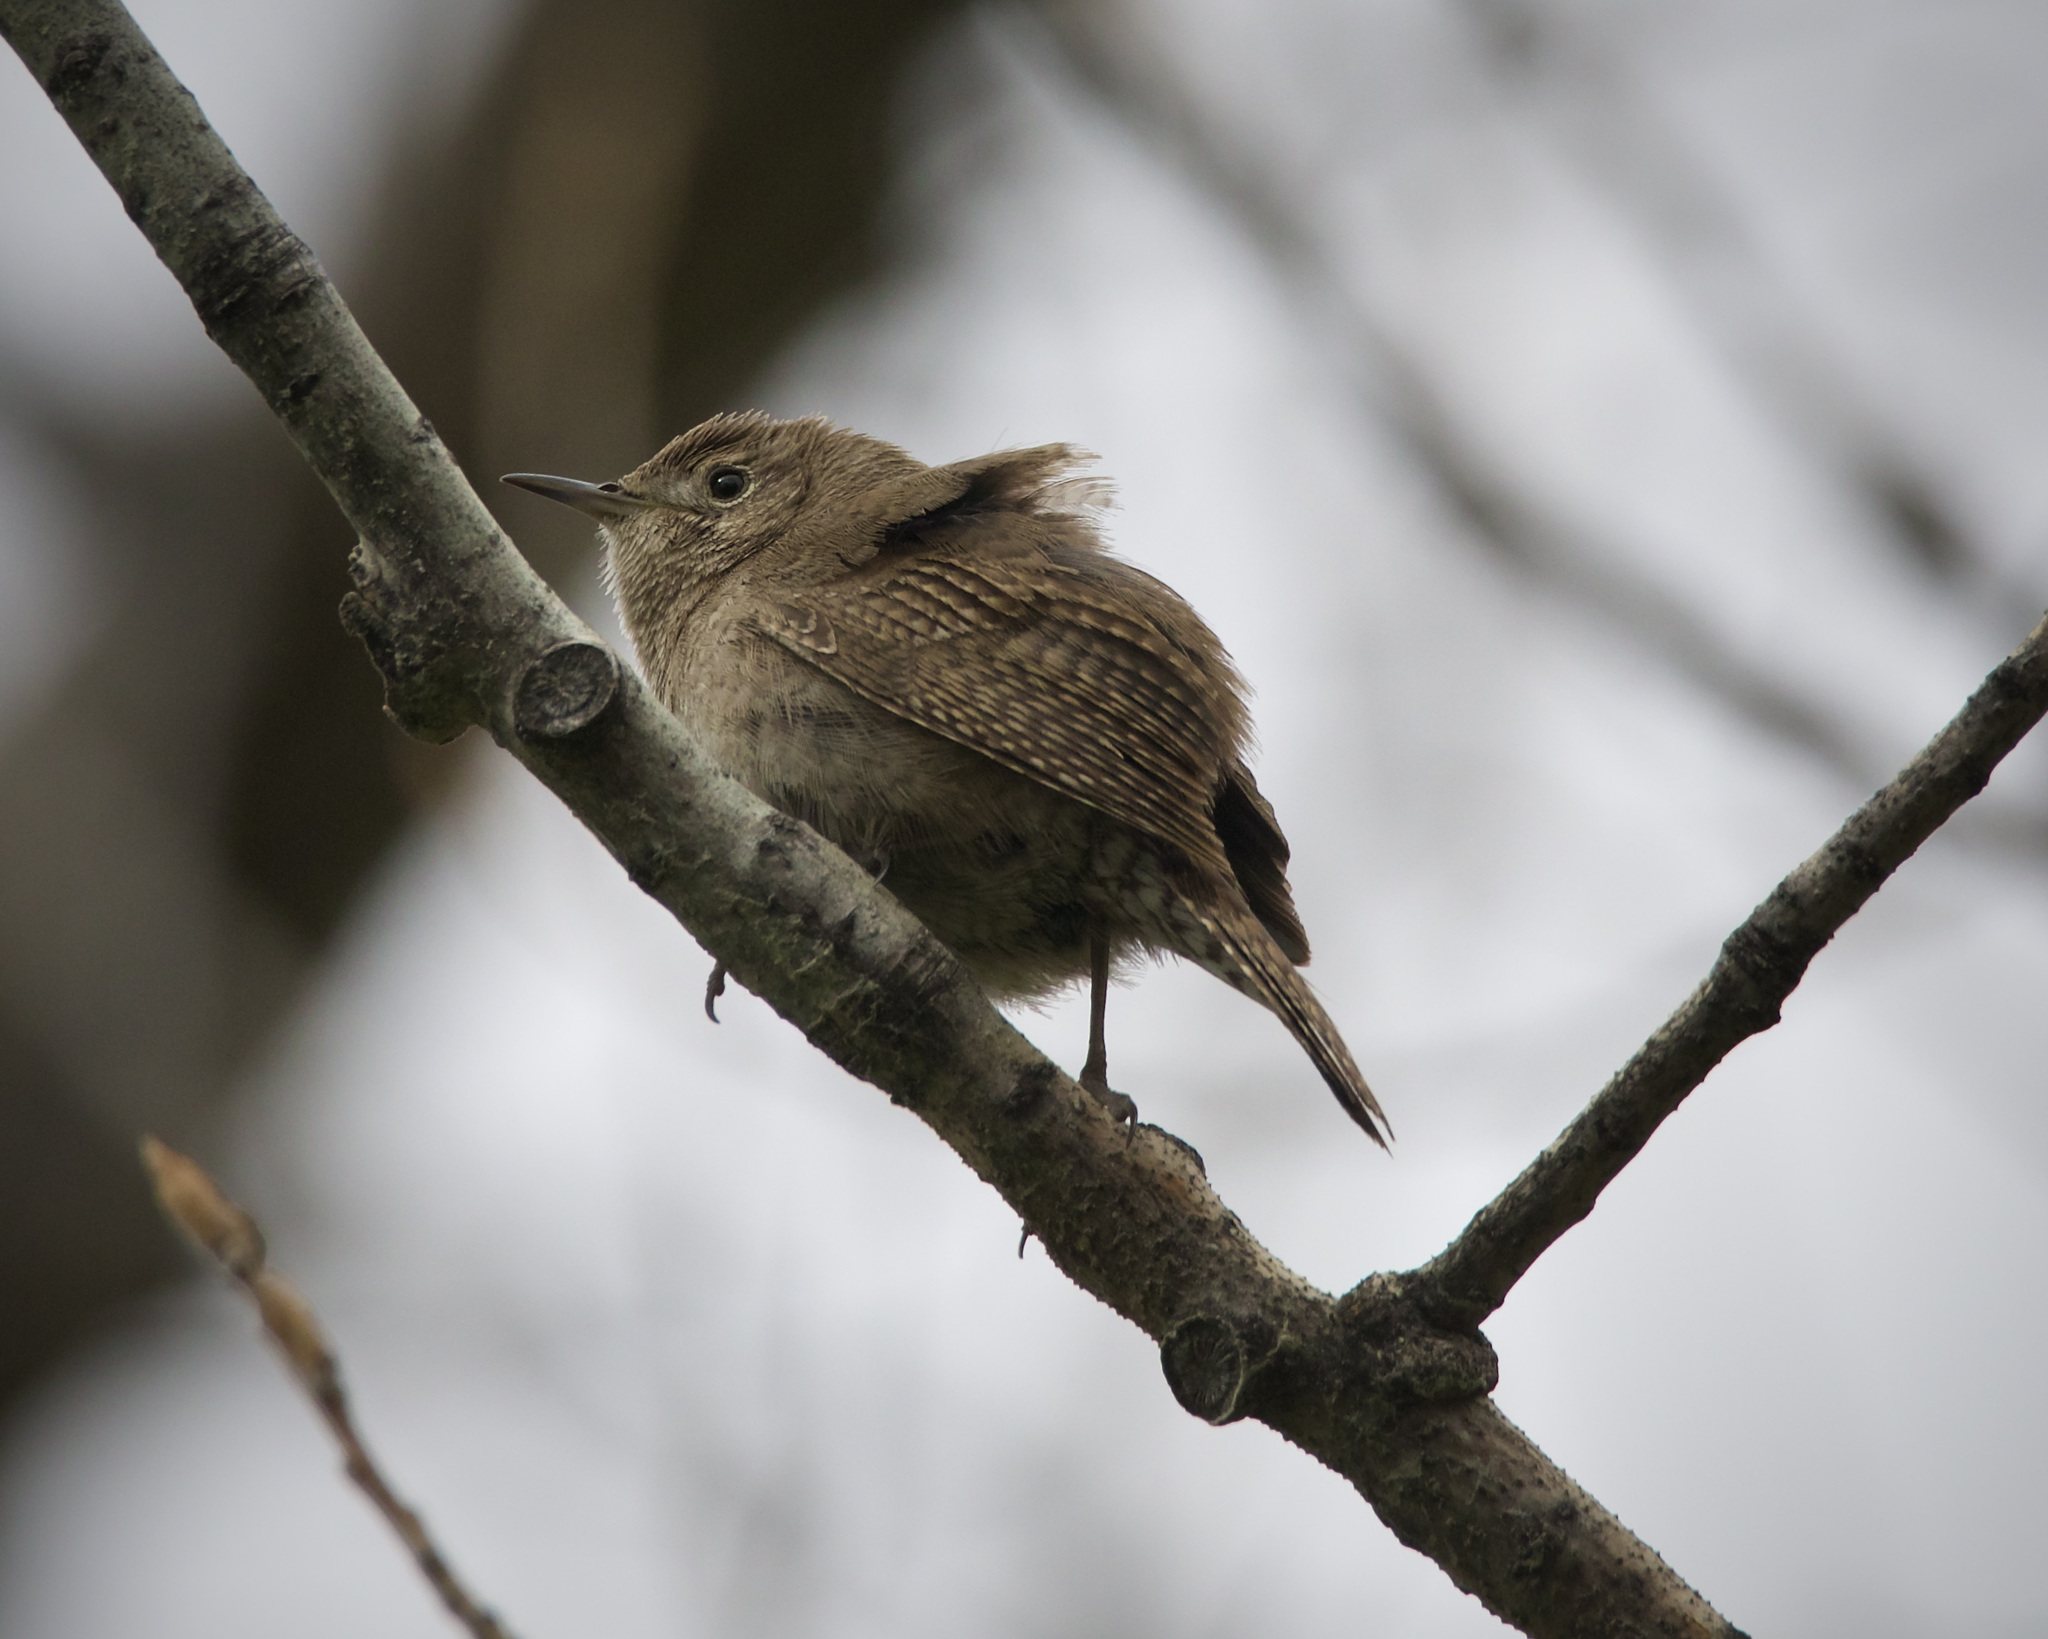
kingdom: Animalia
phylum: Chordata
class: Aves
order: Passeriformes
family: Troglodytidae
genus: Troglodytes
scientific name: Troglodytes aedon
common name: House wren
